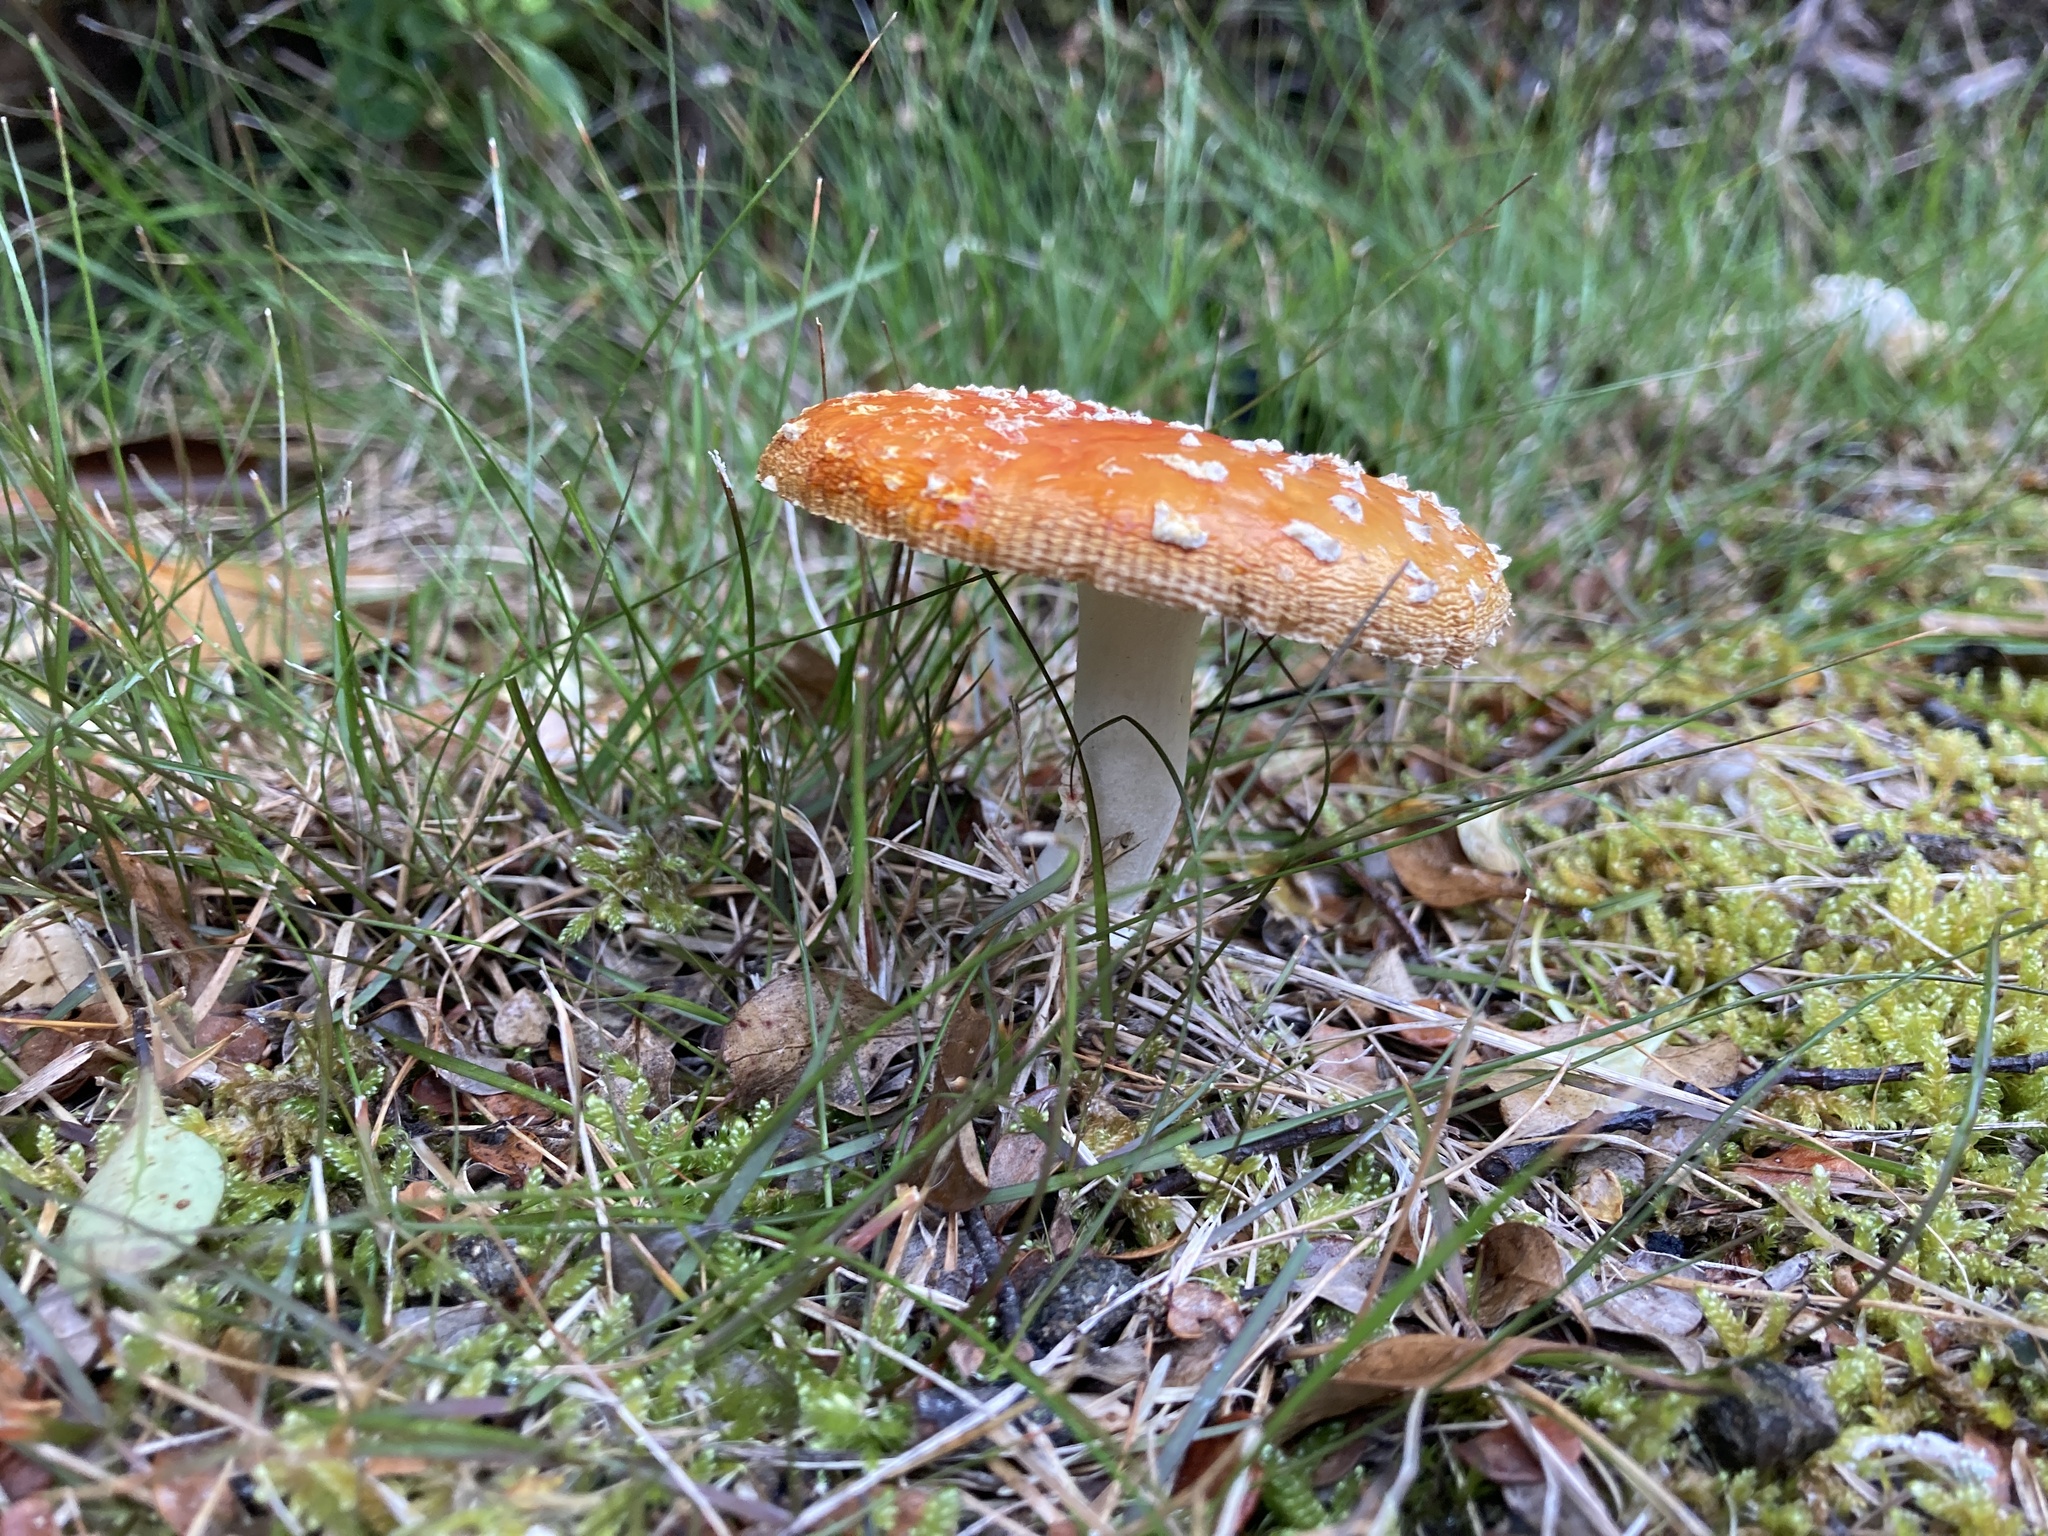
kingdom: Fungi
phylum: Basidiomycota
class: Agaricomycetes
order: Agaricales
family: Amanitaceae
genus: Amanita
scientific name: Amanita muscaria
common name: Fly agaric
